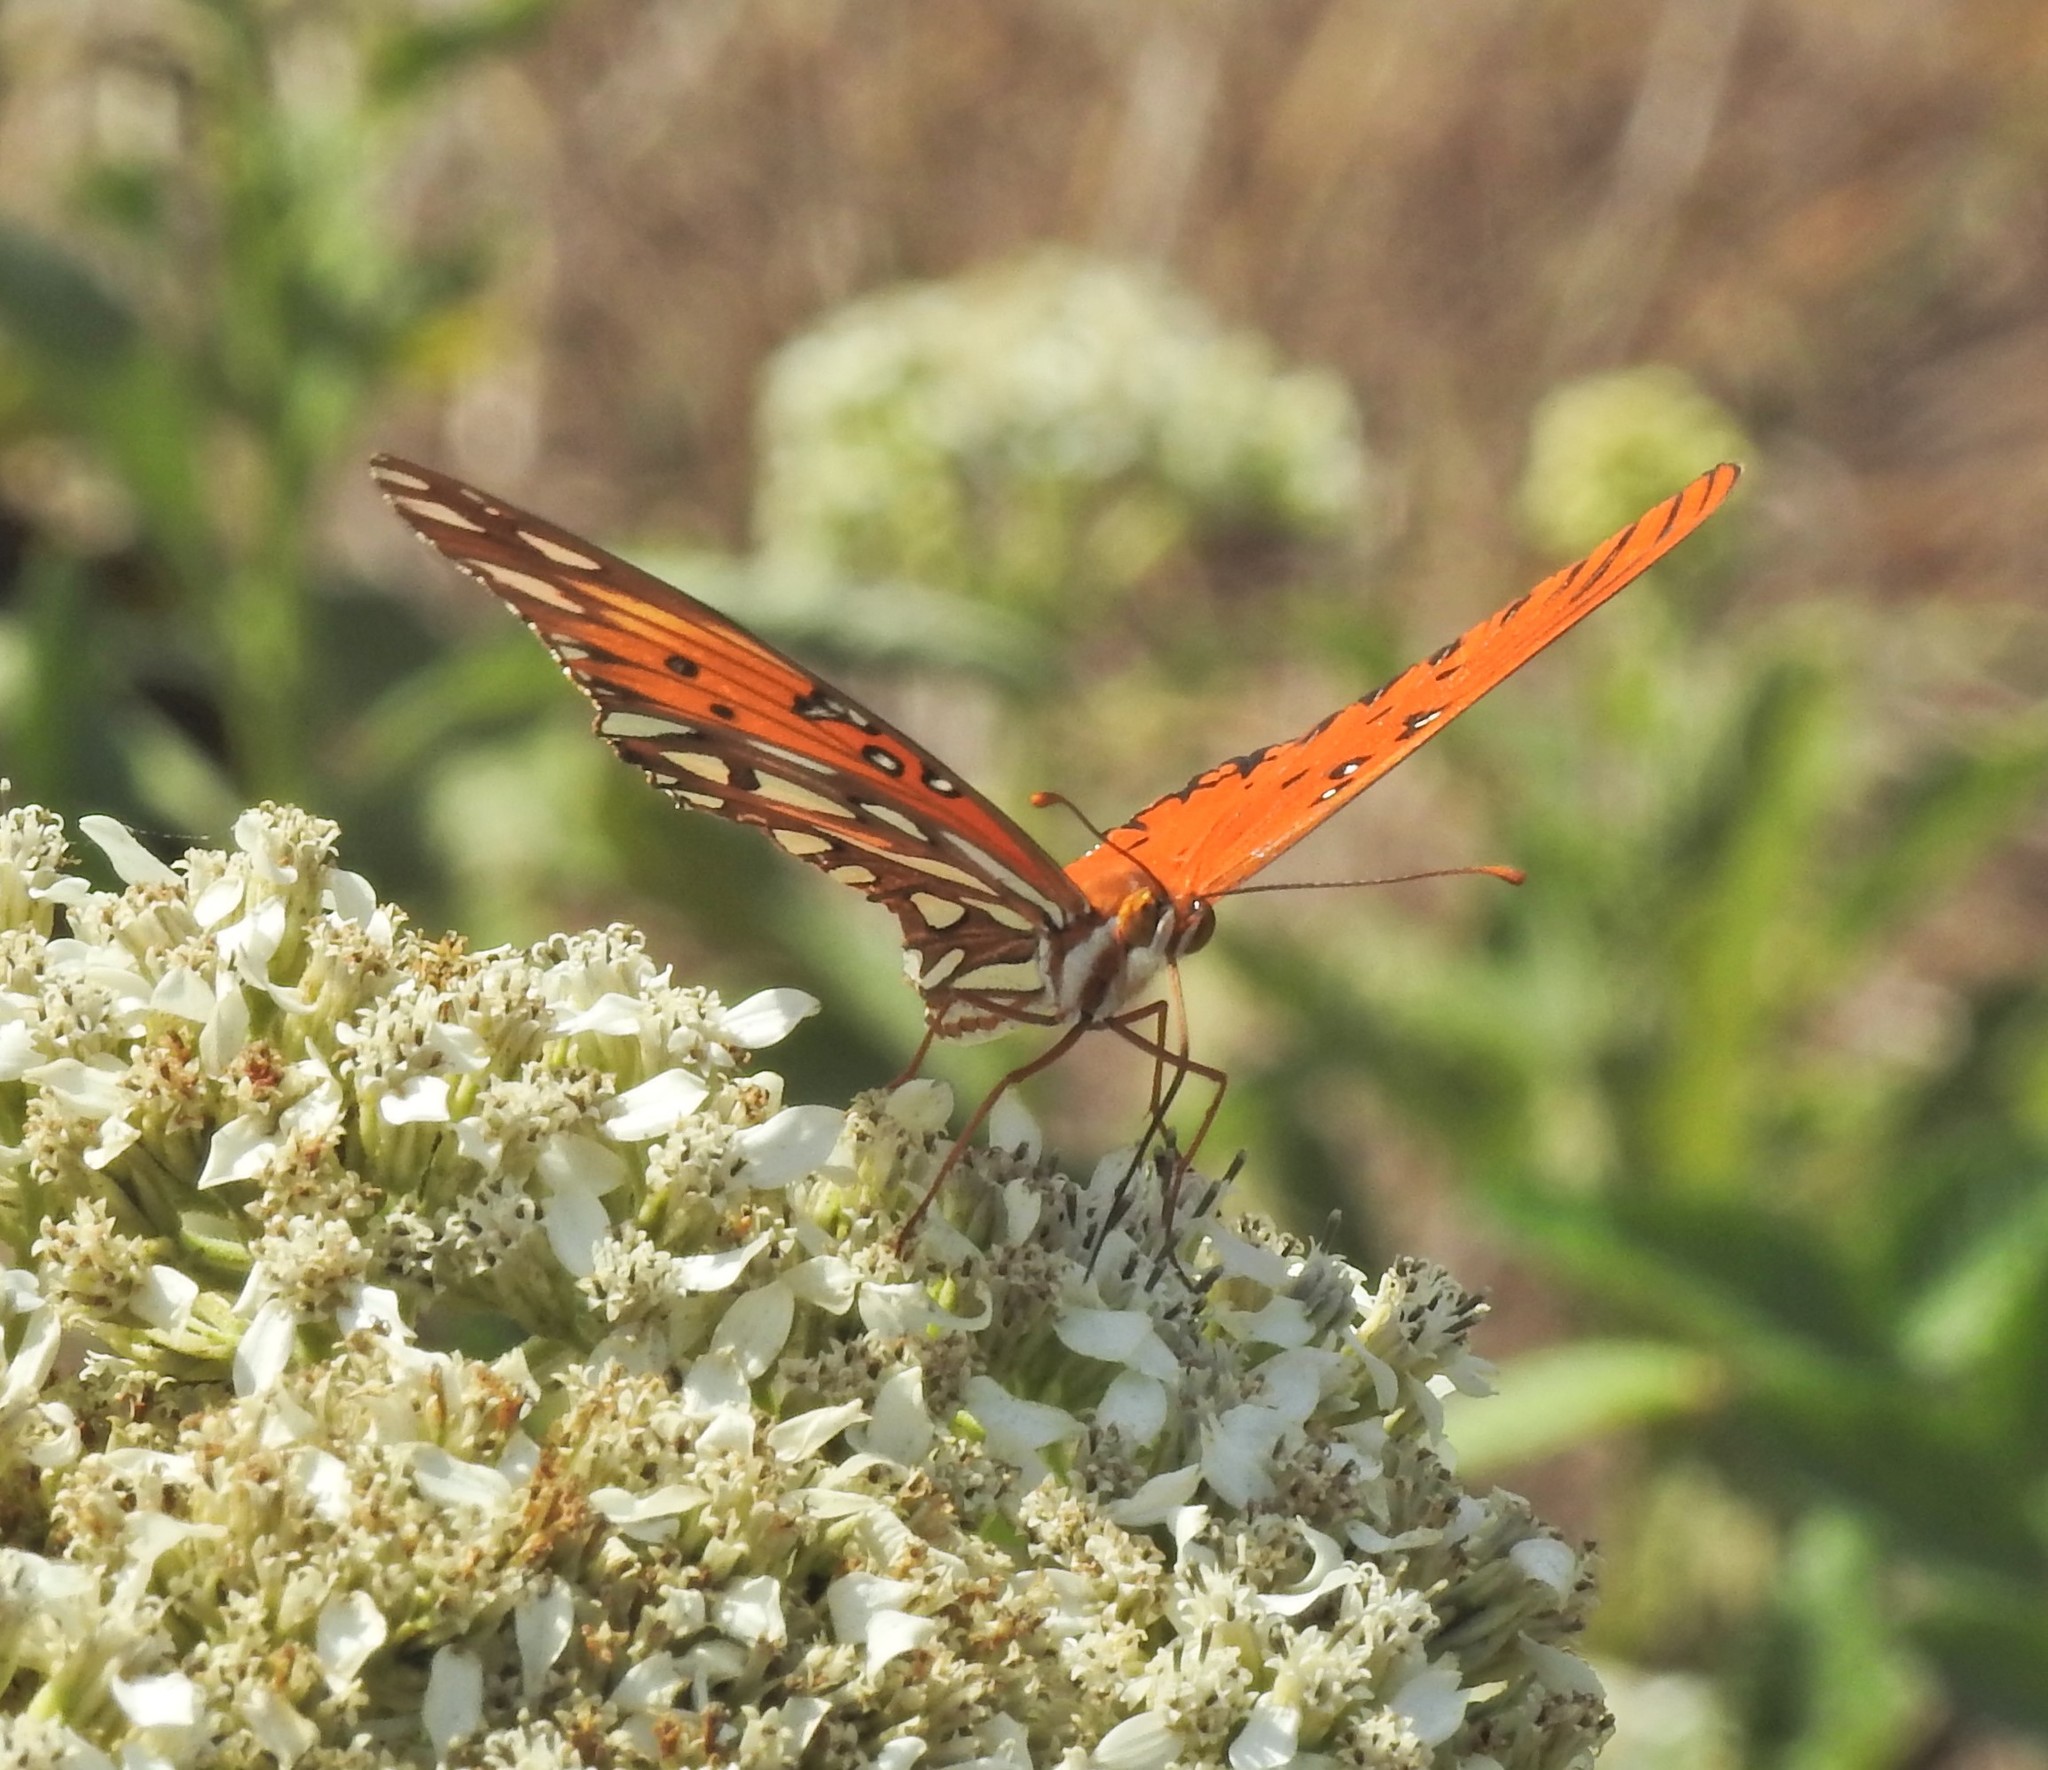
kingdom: Animalia
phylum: Arthropoda
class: Insecta
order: Lepidoptera
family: Nymphalidae
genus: Dione
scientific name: Dione vanillae
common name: Gulf fritillary
